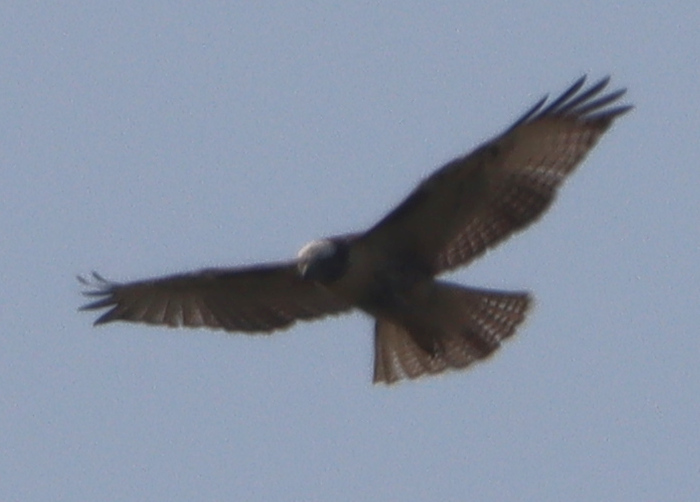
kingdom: Animalia
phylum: Chordata
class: Aves
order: Accipitriformes
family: Accipitridae
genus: Buteo
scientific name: Buteo jamaicensis
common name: Red-tailed hawk
